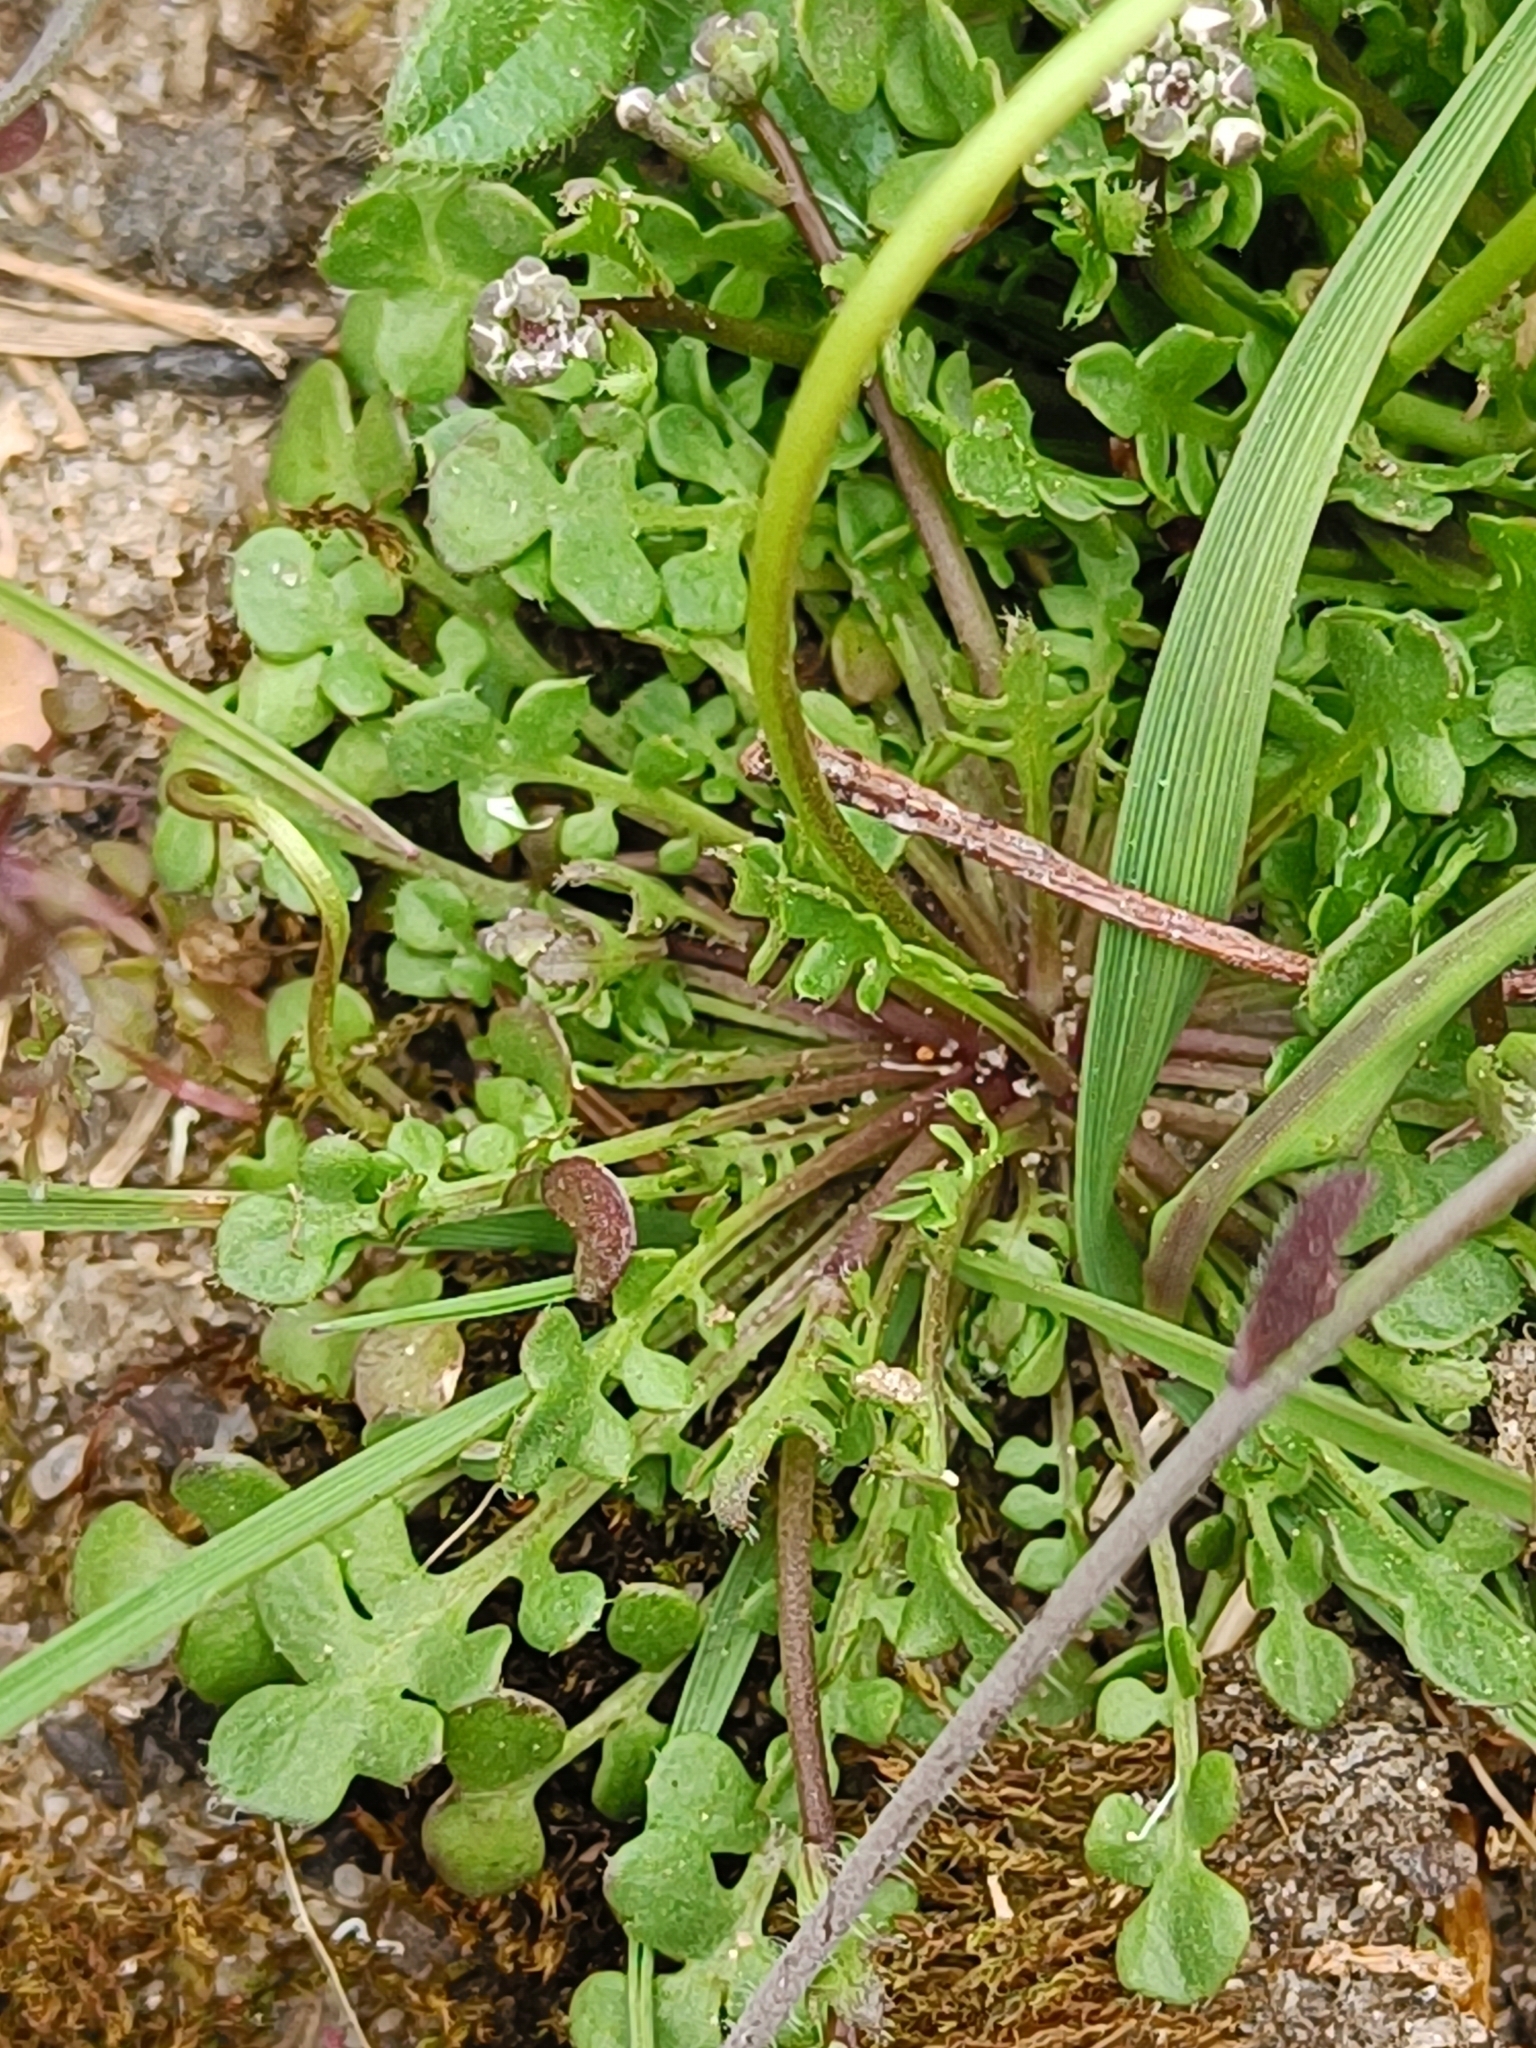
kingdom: Plantae
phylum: Tracheophyta
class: Magnoliopsida
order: Brassicales
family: Brassicaceae
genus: Teesdalia
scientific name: Teesdalia nudicaulis
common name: Shepherd's cress
